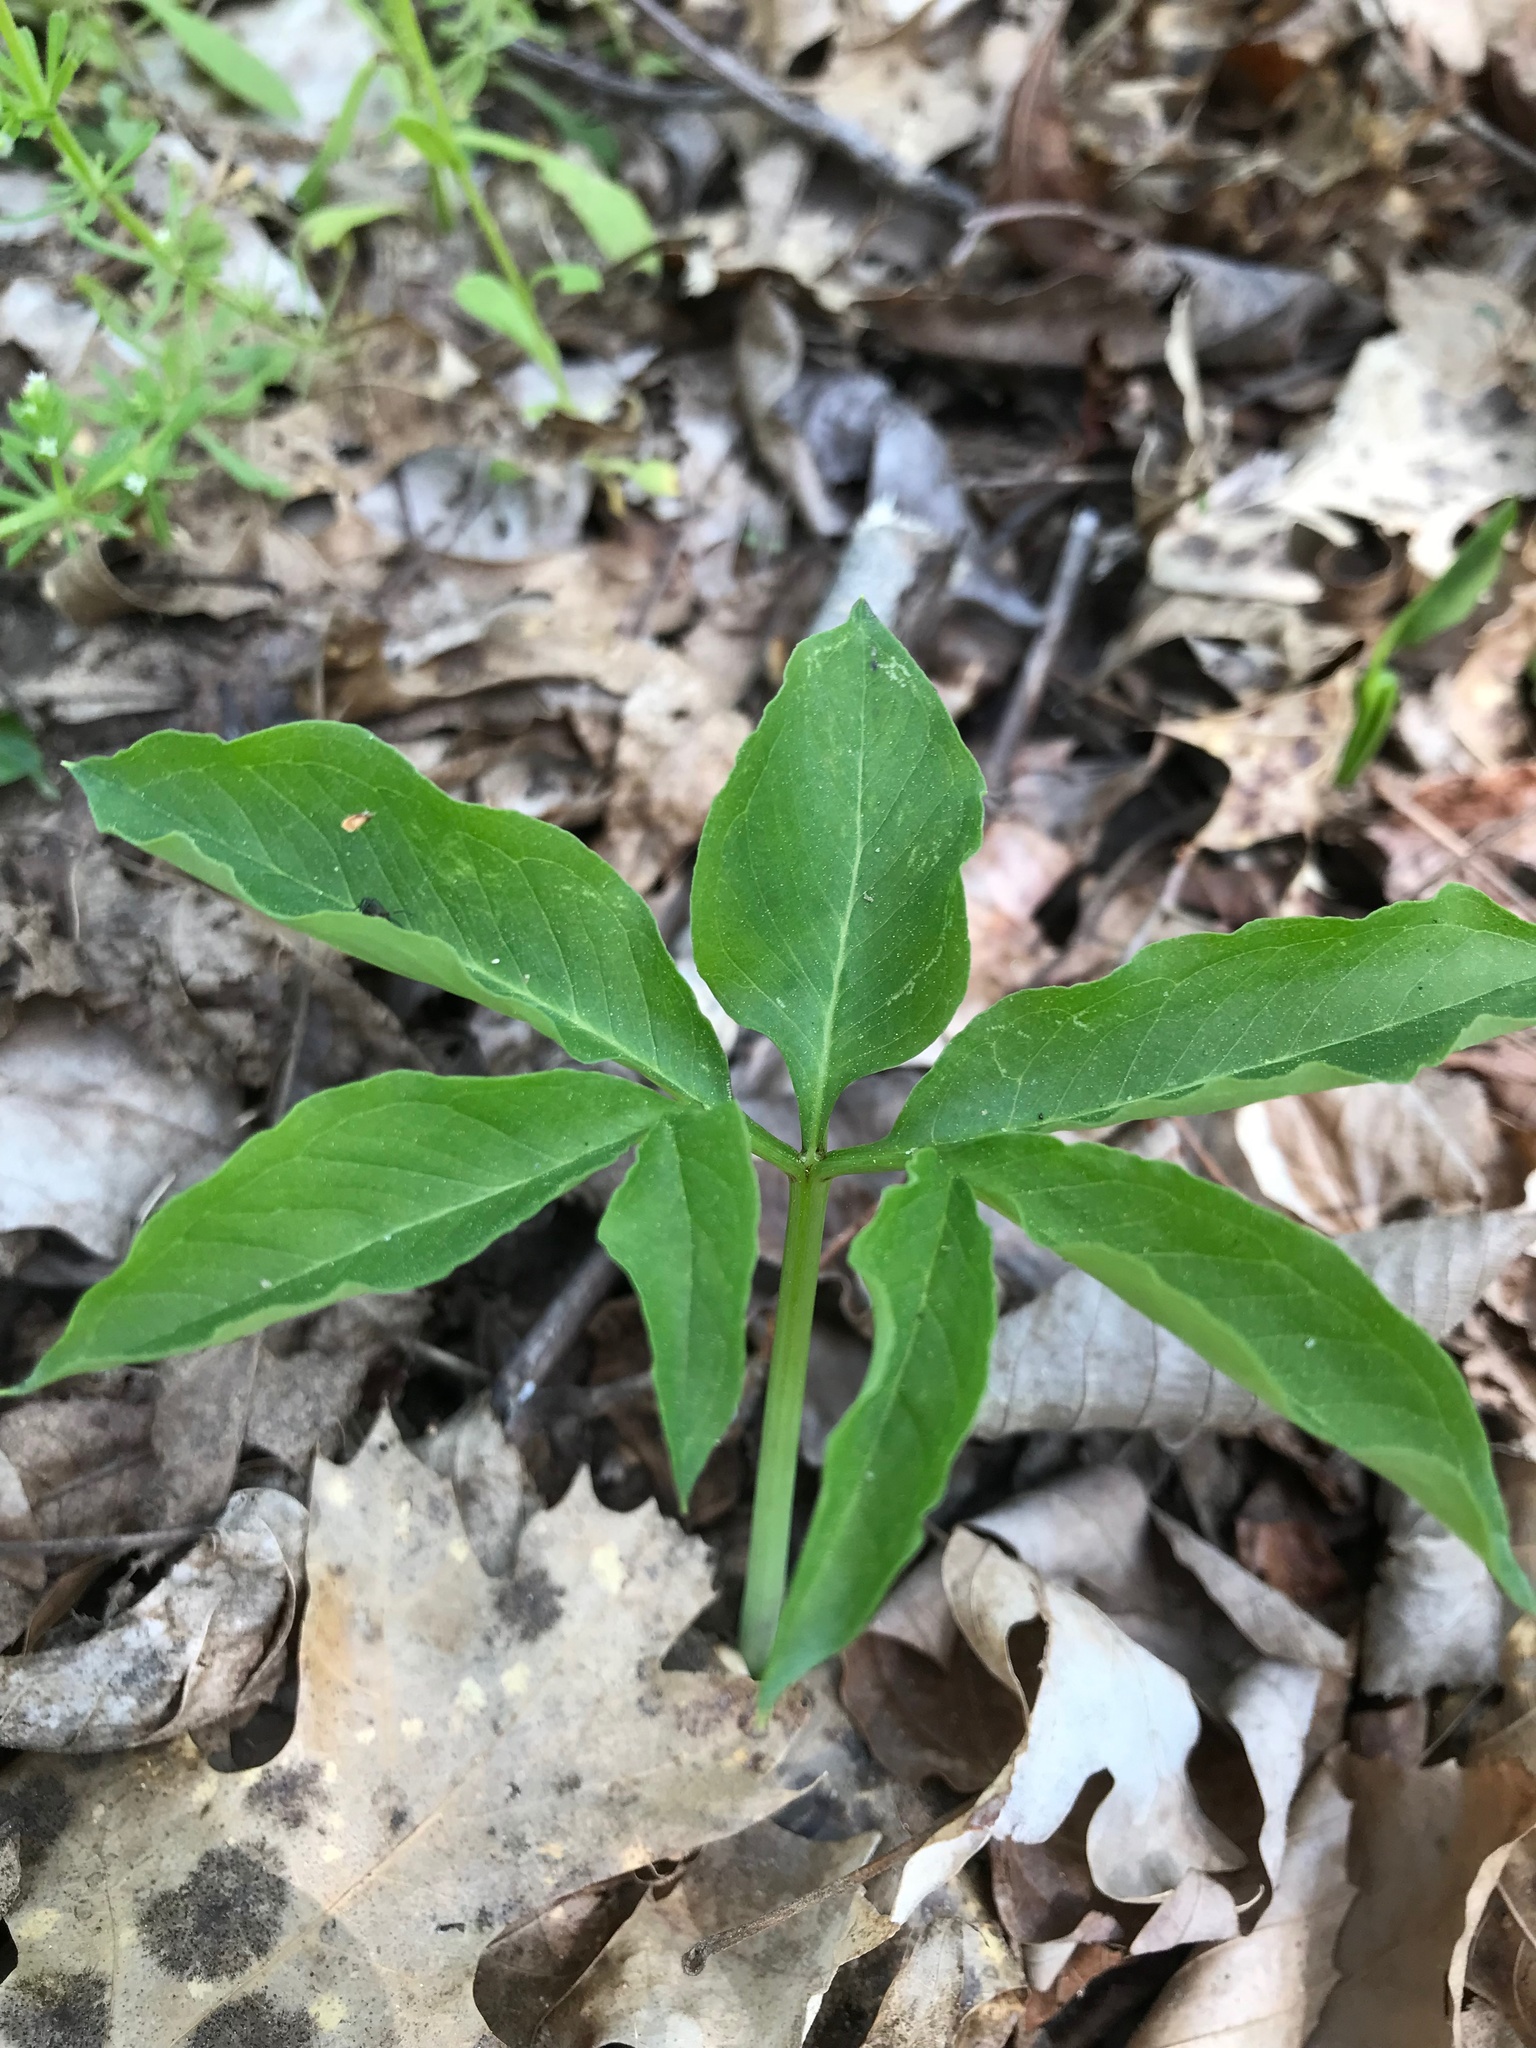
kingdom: Plantae
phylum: Tracheophyta
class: Liliopsida
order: Alismatales
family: Araceae
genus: Arisaema
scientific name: Arisaema dracontium
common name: Dragon-arum
